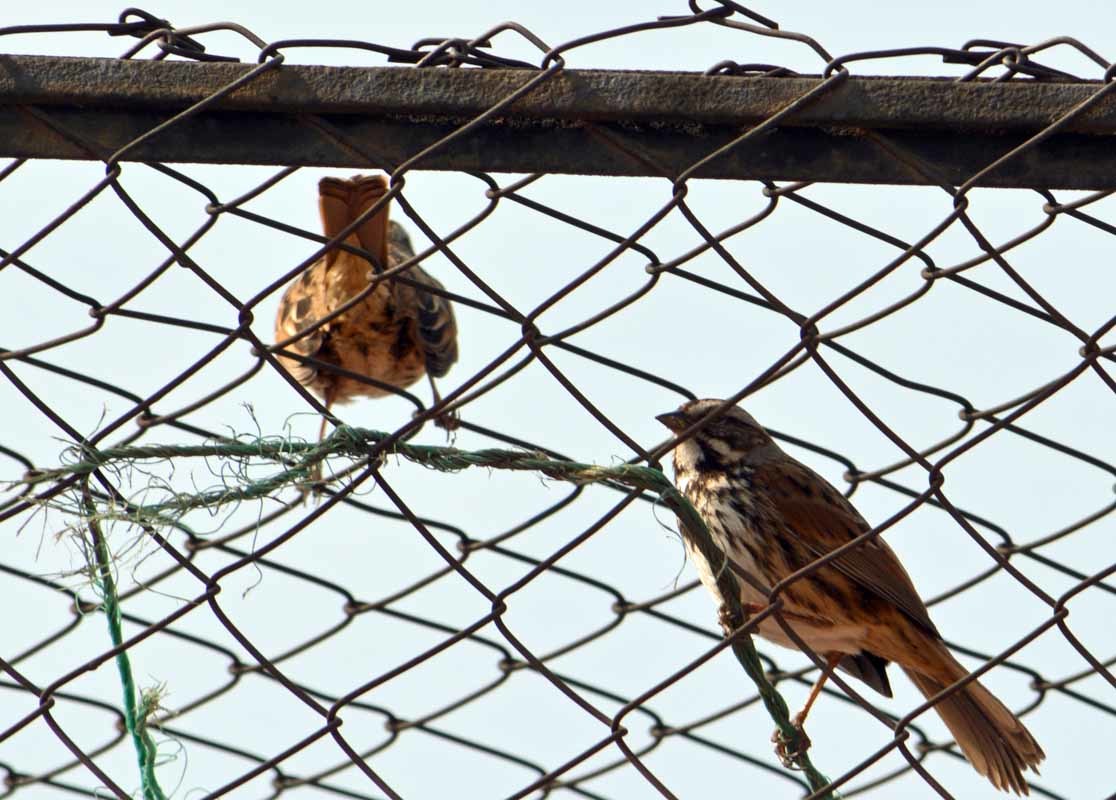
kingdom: Animalia
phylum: Chordata
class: Aves
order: Passeriformes
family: Passerellidae
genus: Melospiza
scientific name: Melospiza melodia
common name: Song sparrow
